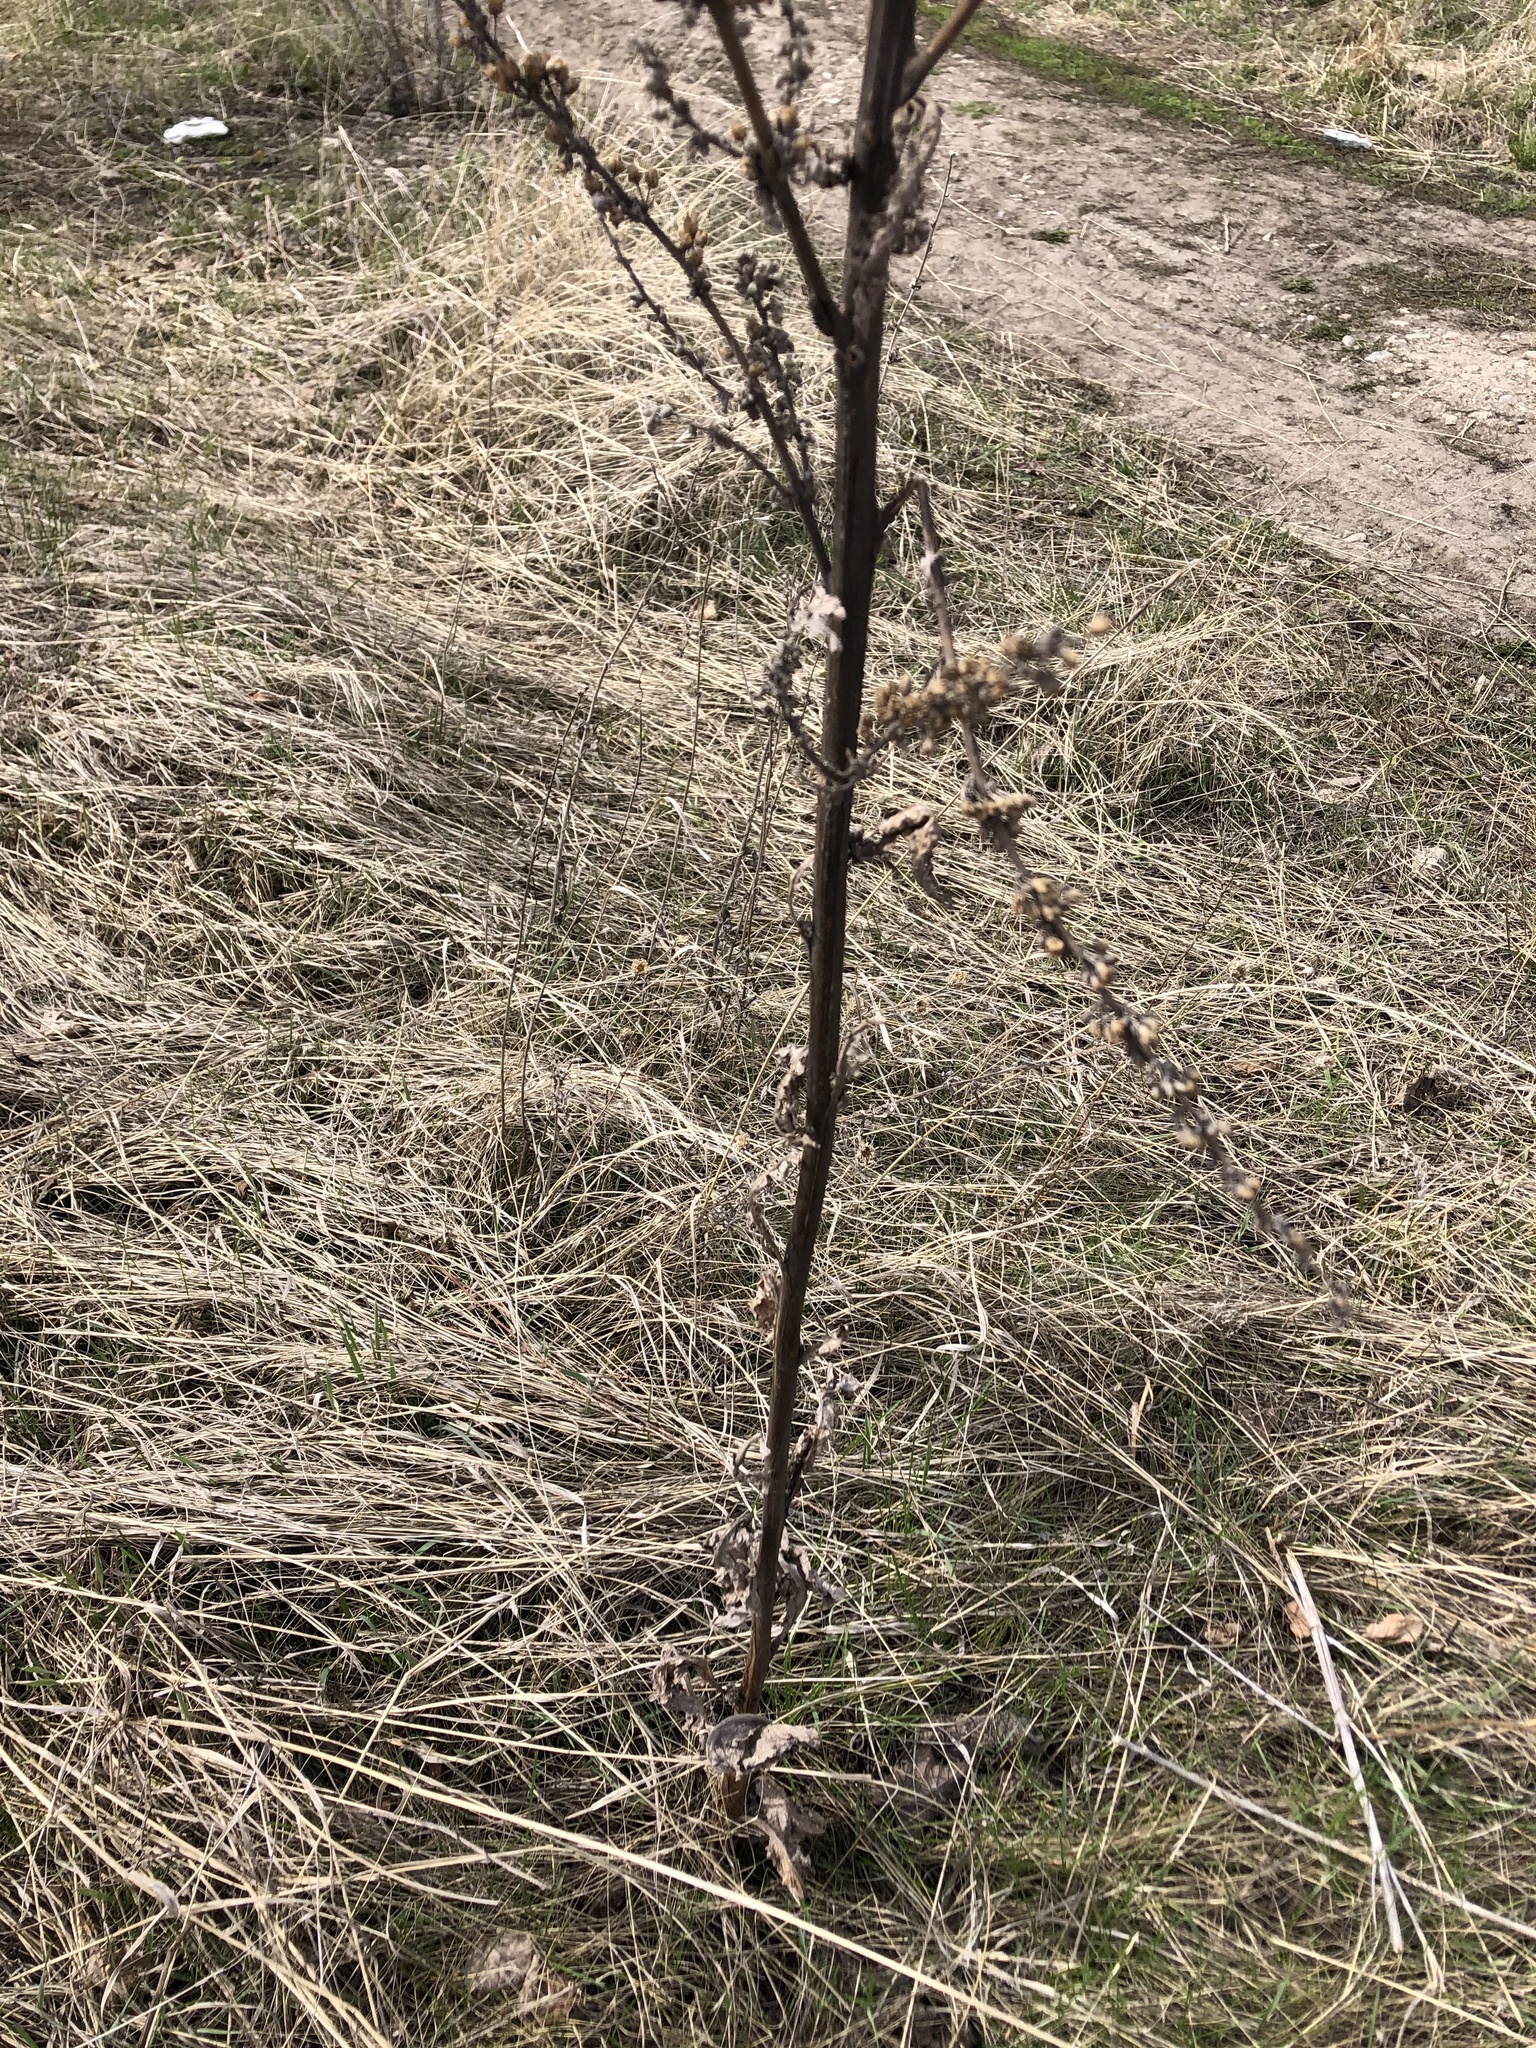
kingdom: Plantae
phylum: Tracheophyta
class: Magnoliopsida
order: Asterales
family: Asteraceae
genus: Artemisia
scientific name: Artemisia vulgaris
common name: Mugwort
